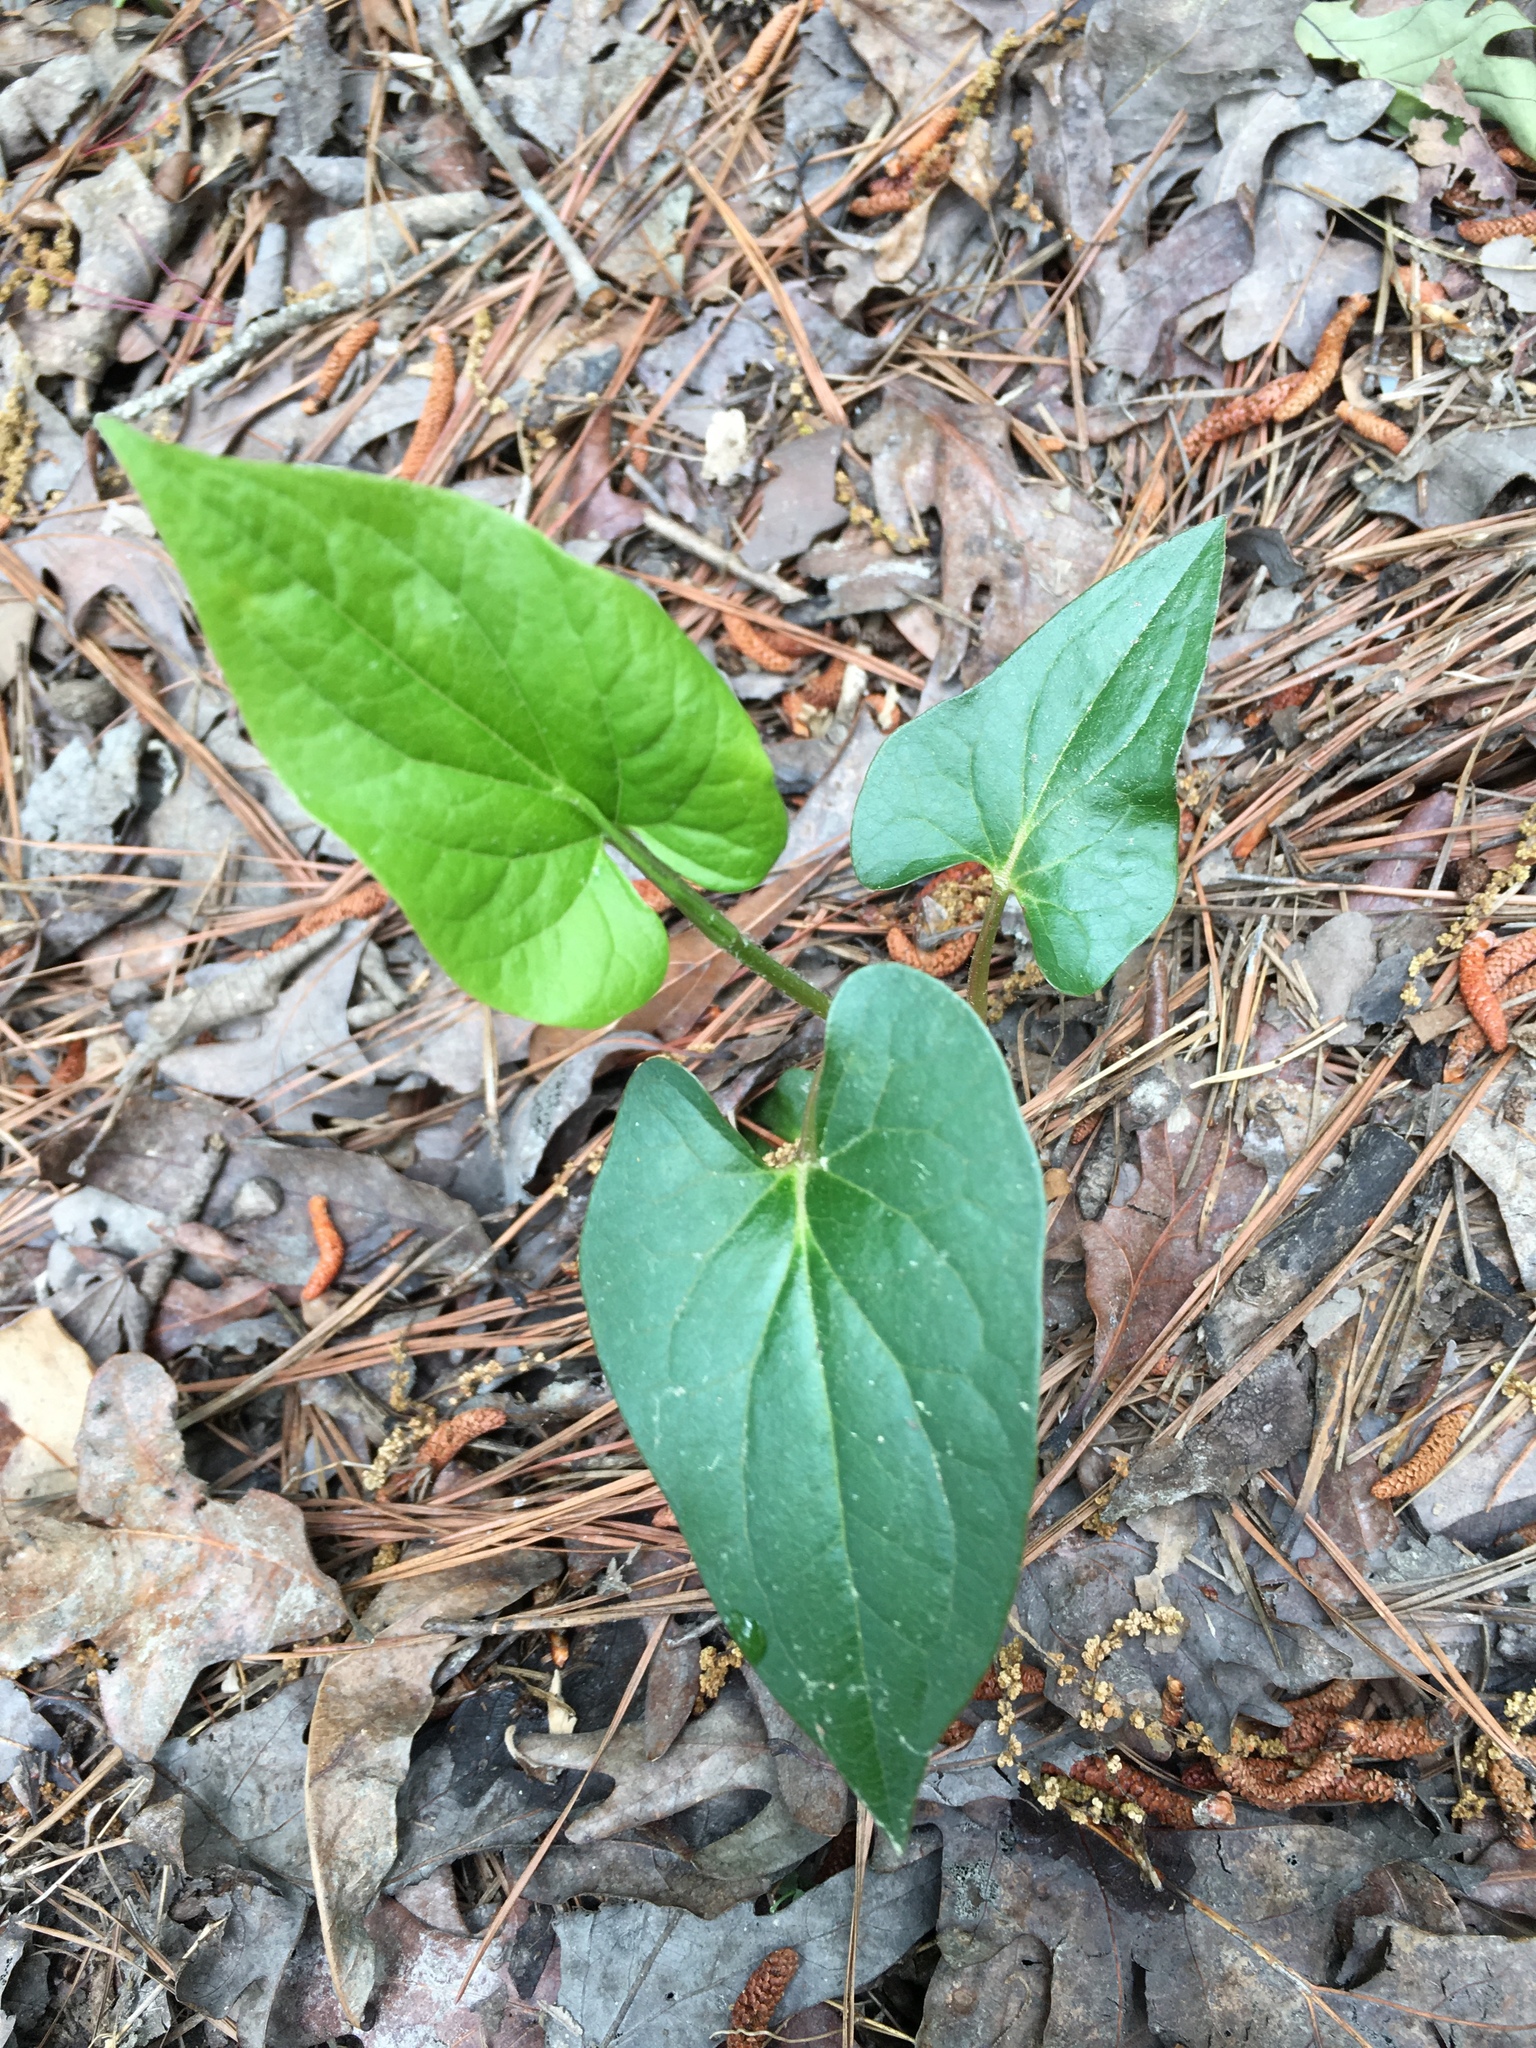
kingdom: Plantae
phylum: Tracheophyta
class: Magnoliopsida
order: Piperales
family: Saururaceae
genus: Saururus
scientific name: Saururus cernuus
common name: Lizard's-tail
